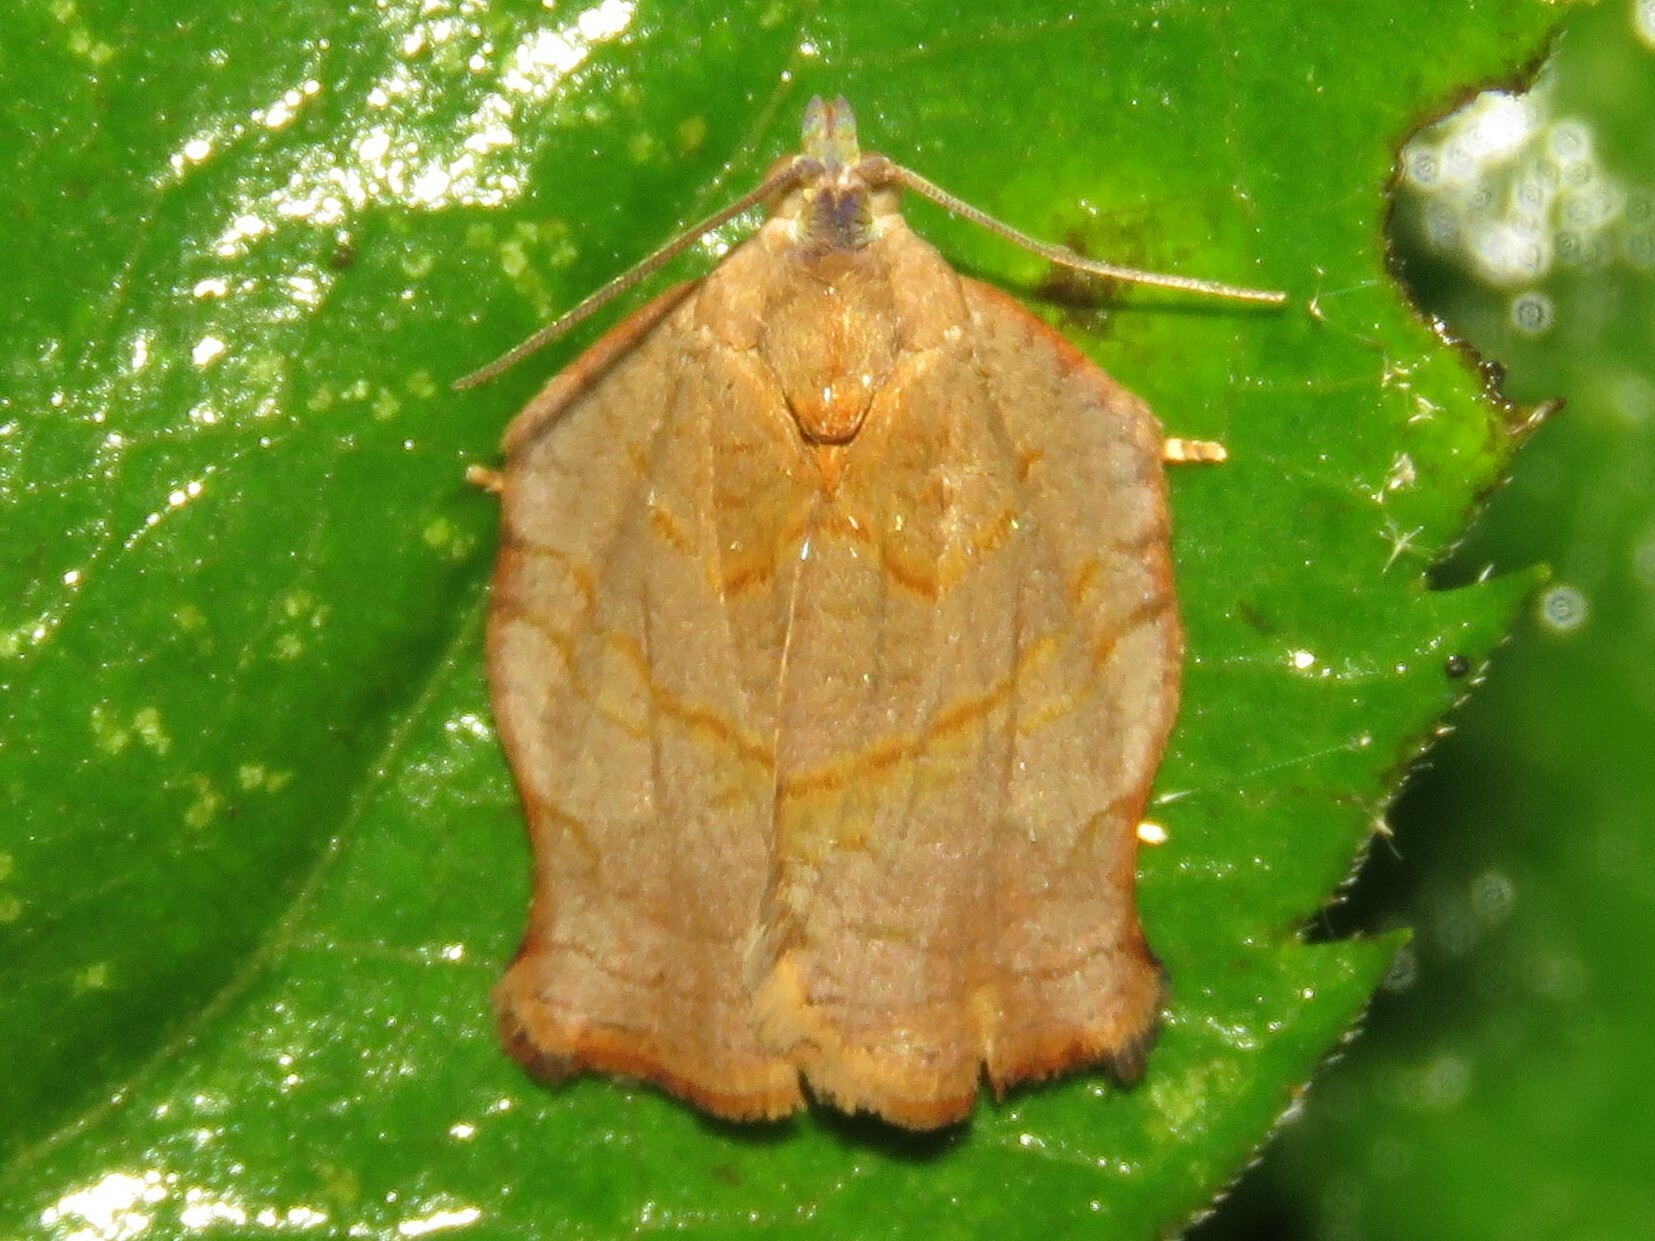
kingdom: Animalia
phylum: Arthropoda
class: Insecta
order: Lepidoptera
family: Tortricidae
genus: Archips
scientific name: Archips purpurana
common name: Omnivorous leafroller
